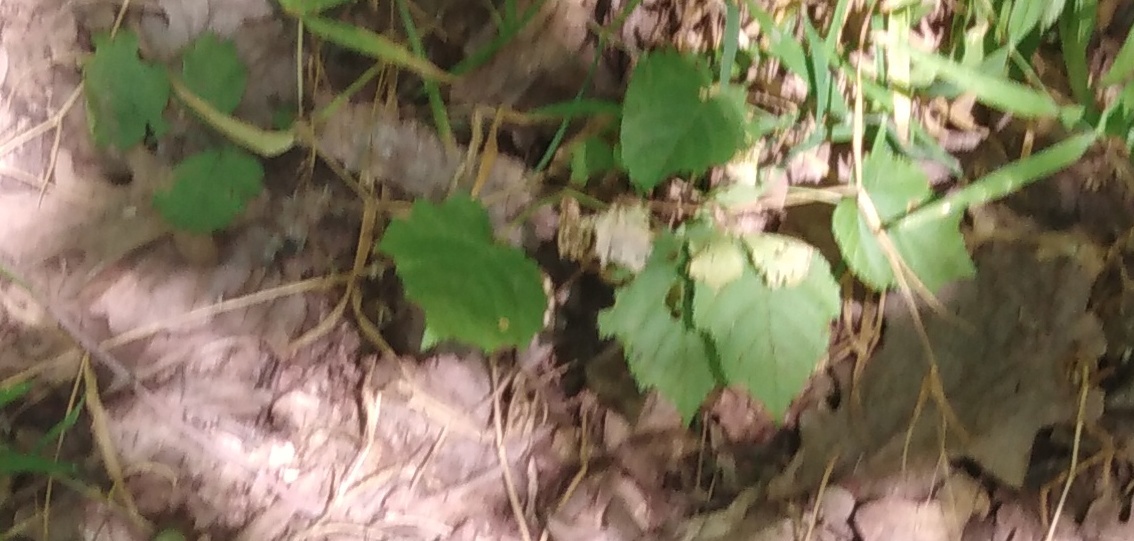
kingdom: Plantae
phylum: Tracheophyta
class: Magnoliopsida
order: Sapindales
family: Sapindaceae
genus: Acer
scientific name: Acer tataricum
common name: Tartar maple
